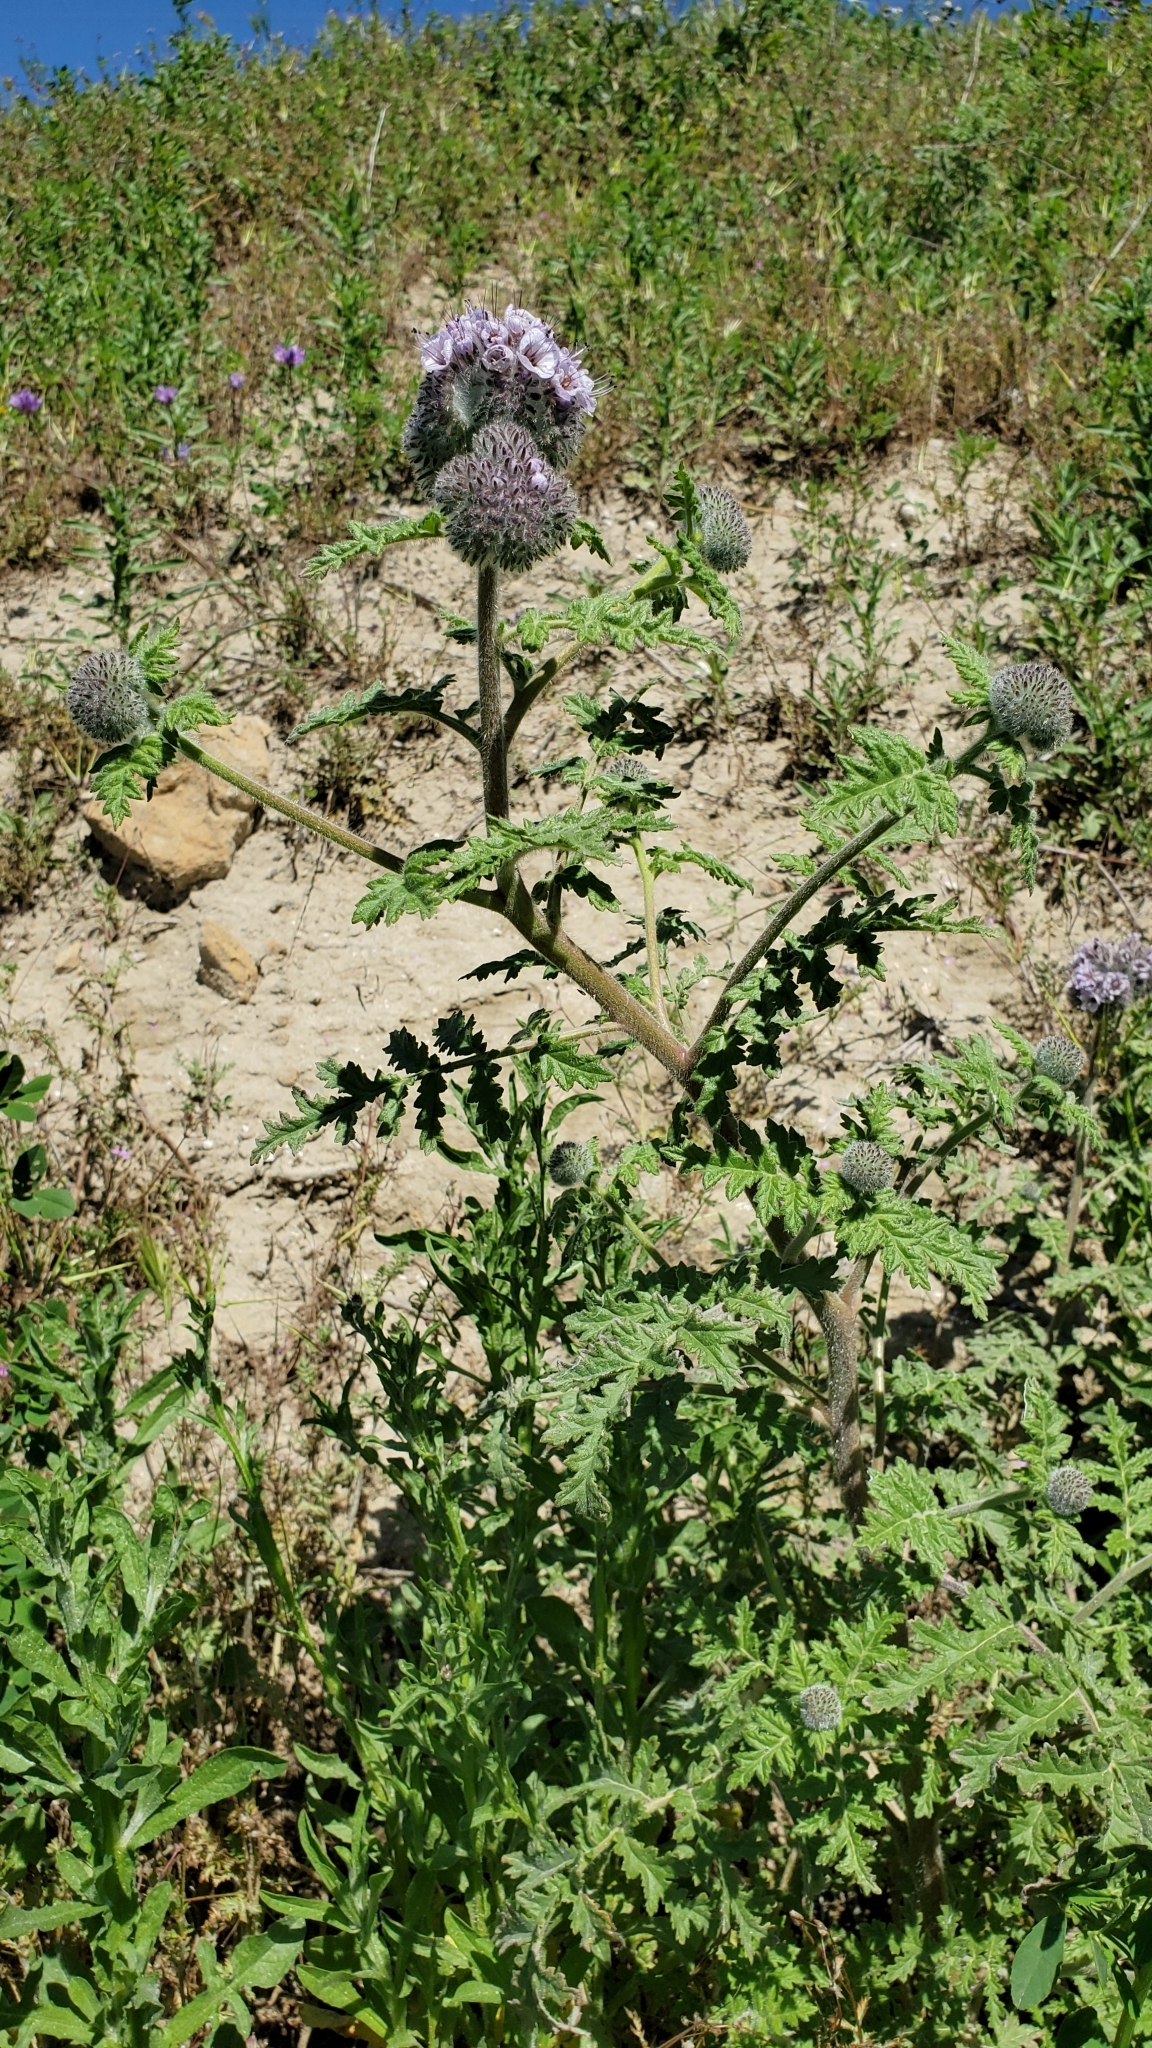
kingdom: Plantae
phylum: Tracheophyta
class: Magnoliopsida
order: Boraginales
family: Hydrophyllaceae
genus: Phacelia
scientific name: Phacelia hubbyi
